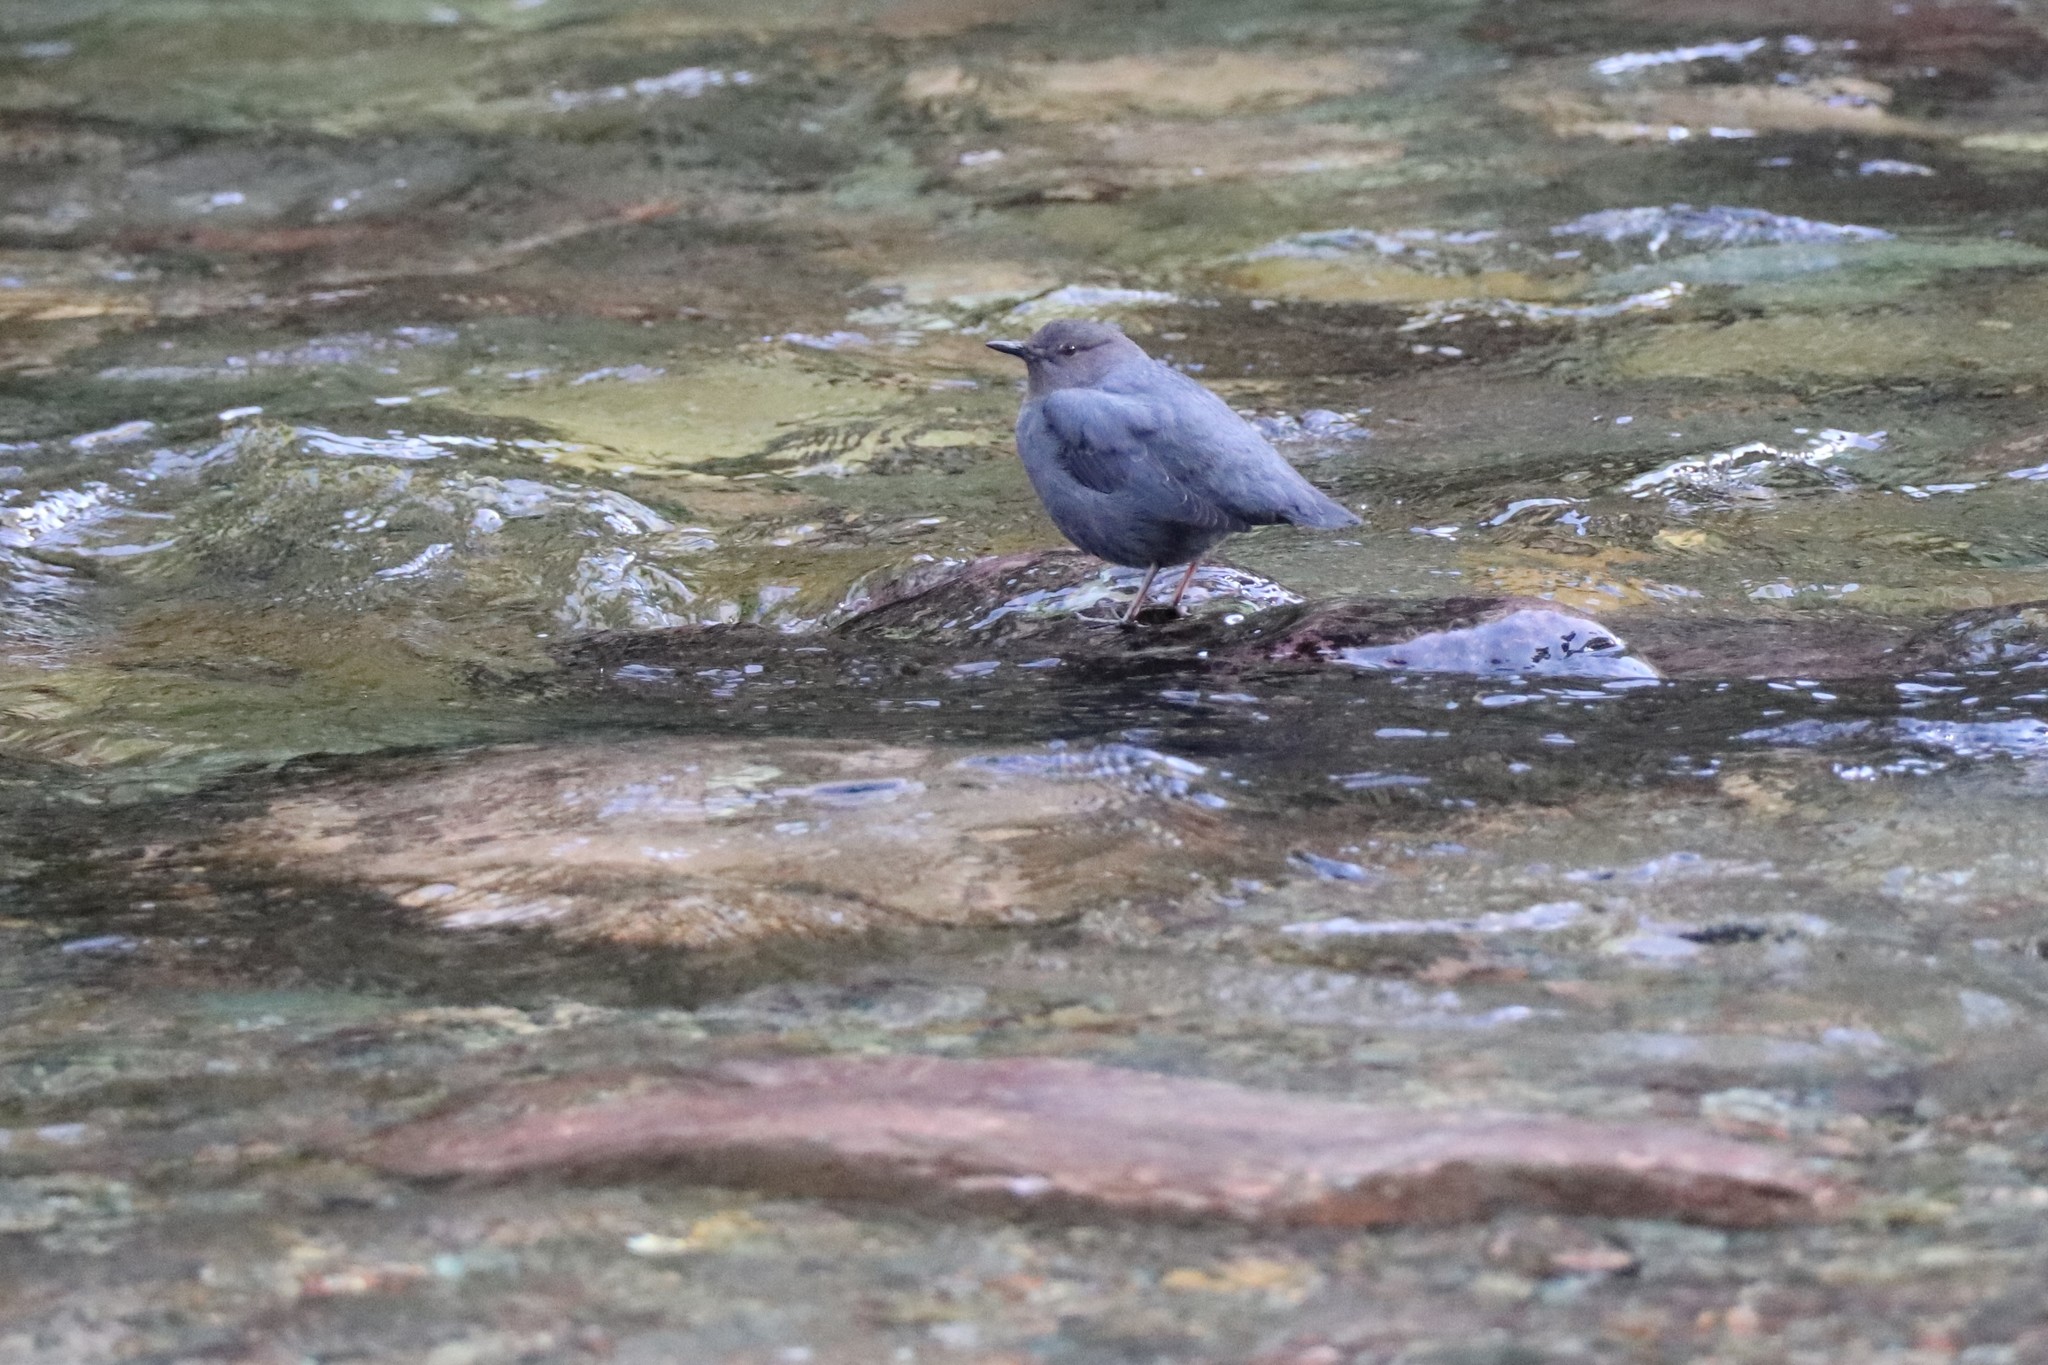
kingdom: Animalia
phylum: Chordata
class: Aves
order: Passeriformes
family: Cinclidae
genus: Cinclus
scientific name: Cinclus mexicanus
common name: American dipper
